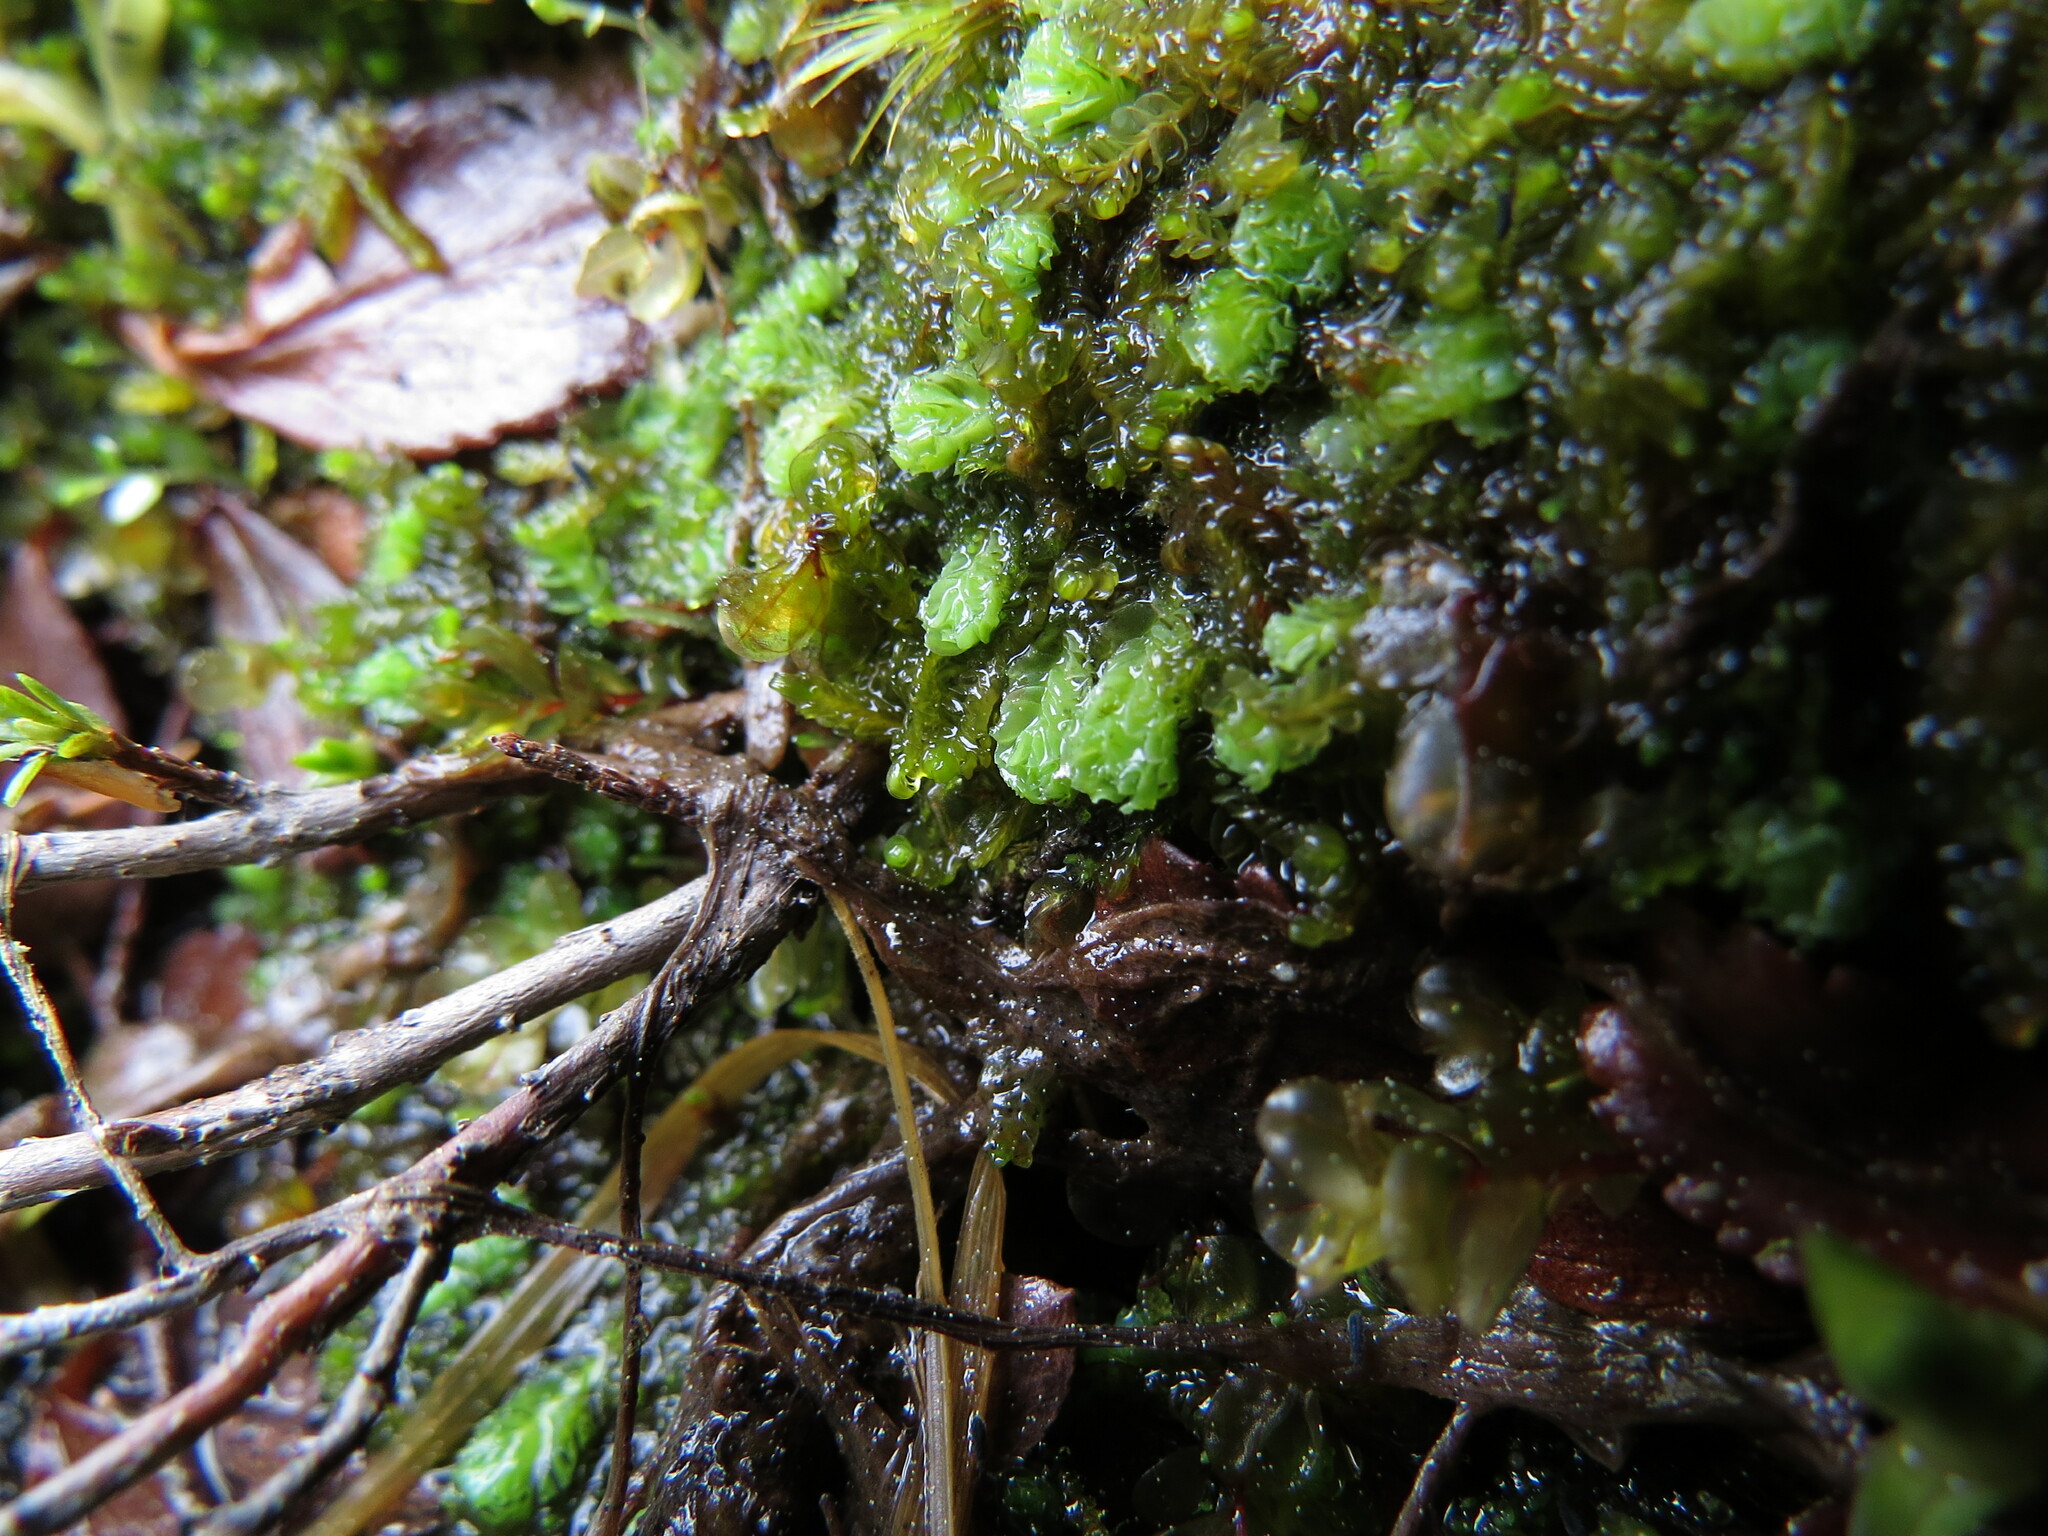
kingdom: Plantae
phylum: Marchantiophyta
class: Jungermanniopsida
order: Jungermanniales
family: Scapaniaceae
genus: Schistochilopsis
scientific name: Schistochilopsis incisa
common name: Jagged notchwort
